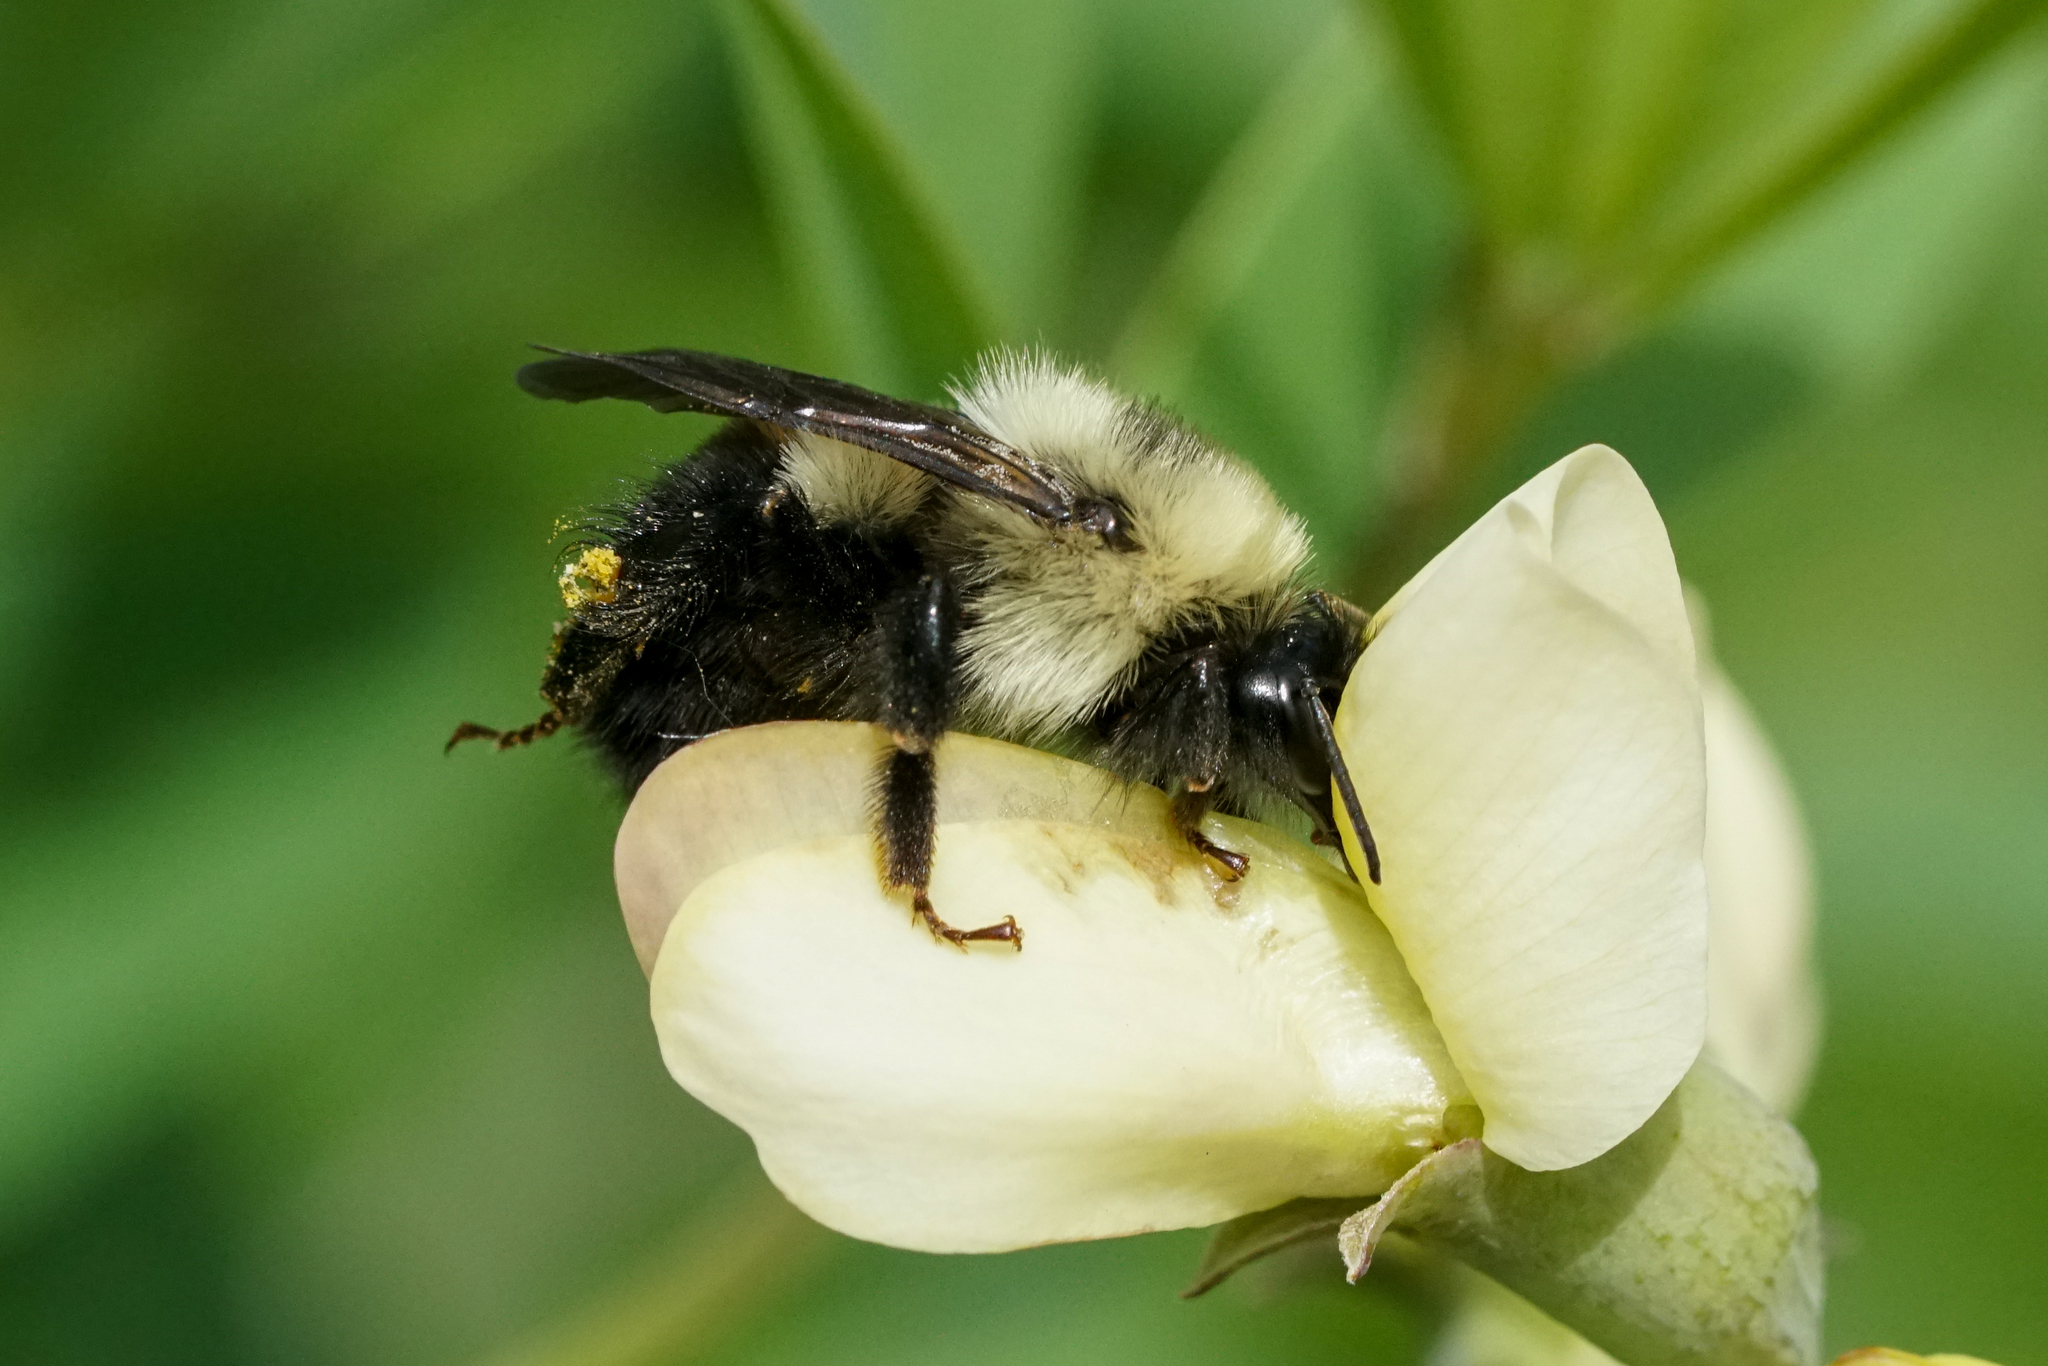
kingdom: Animalia
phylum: Arthropoda
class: Insecta
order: Hymenoptera
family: Apidae
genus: Bombus
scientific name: Bombus bimaculatus
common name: Two-spotted bumble bee
